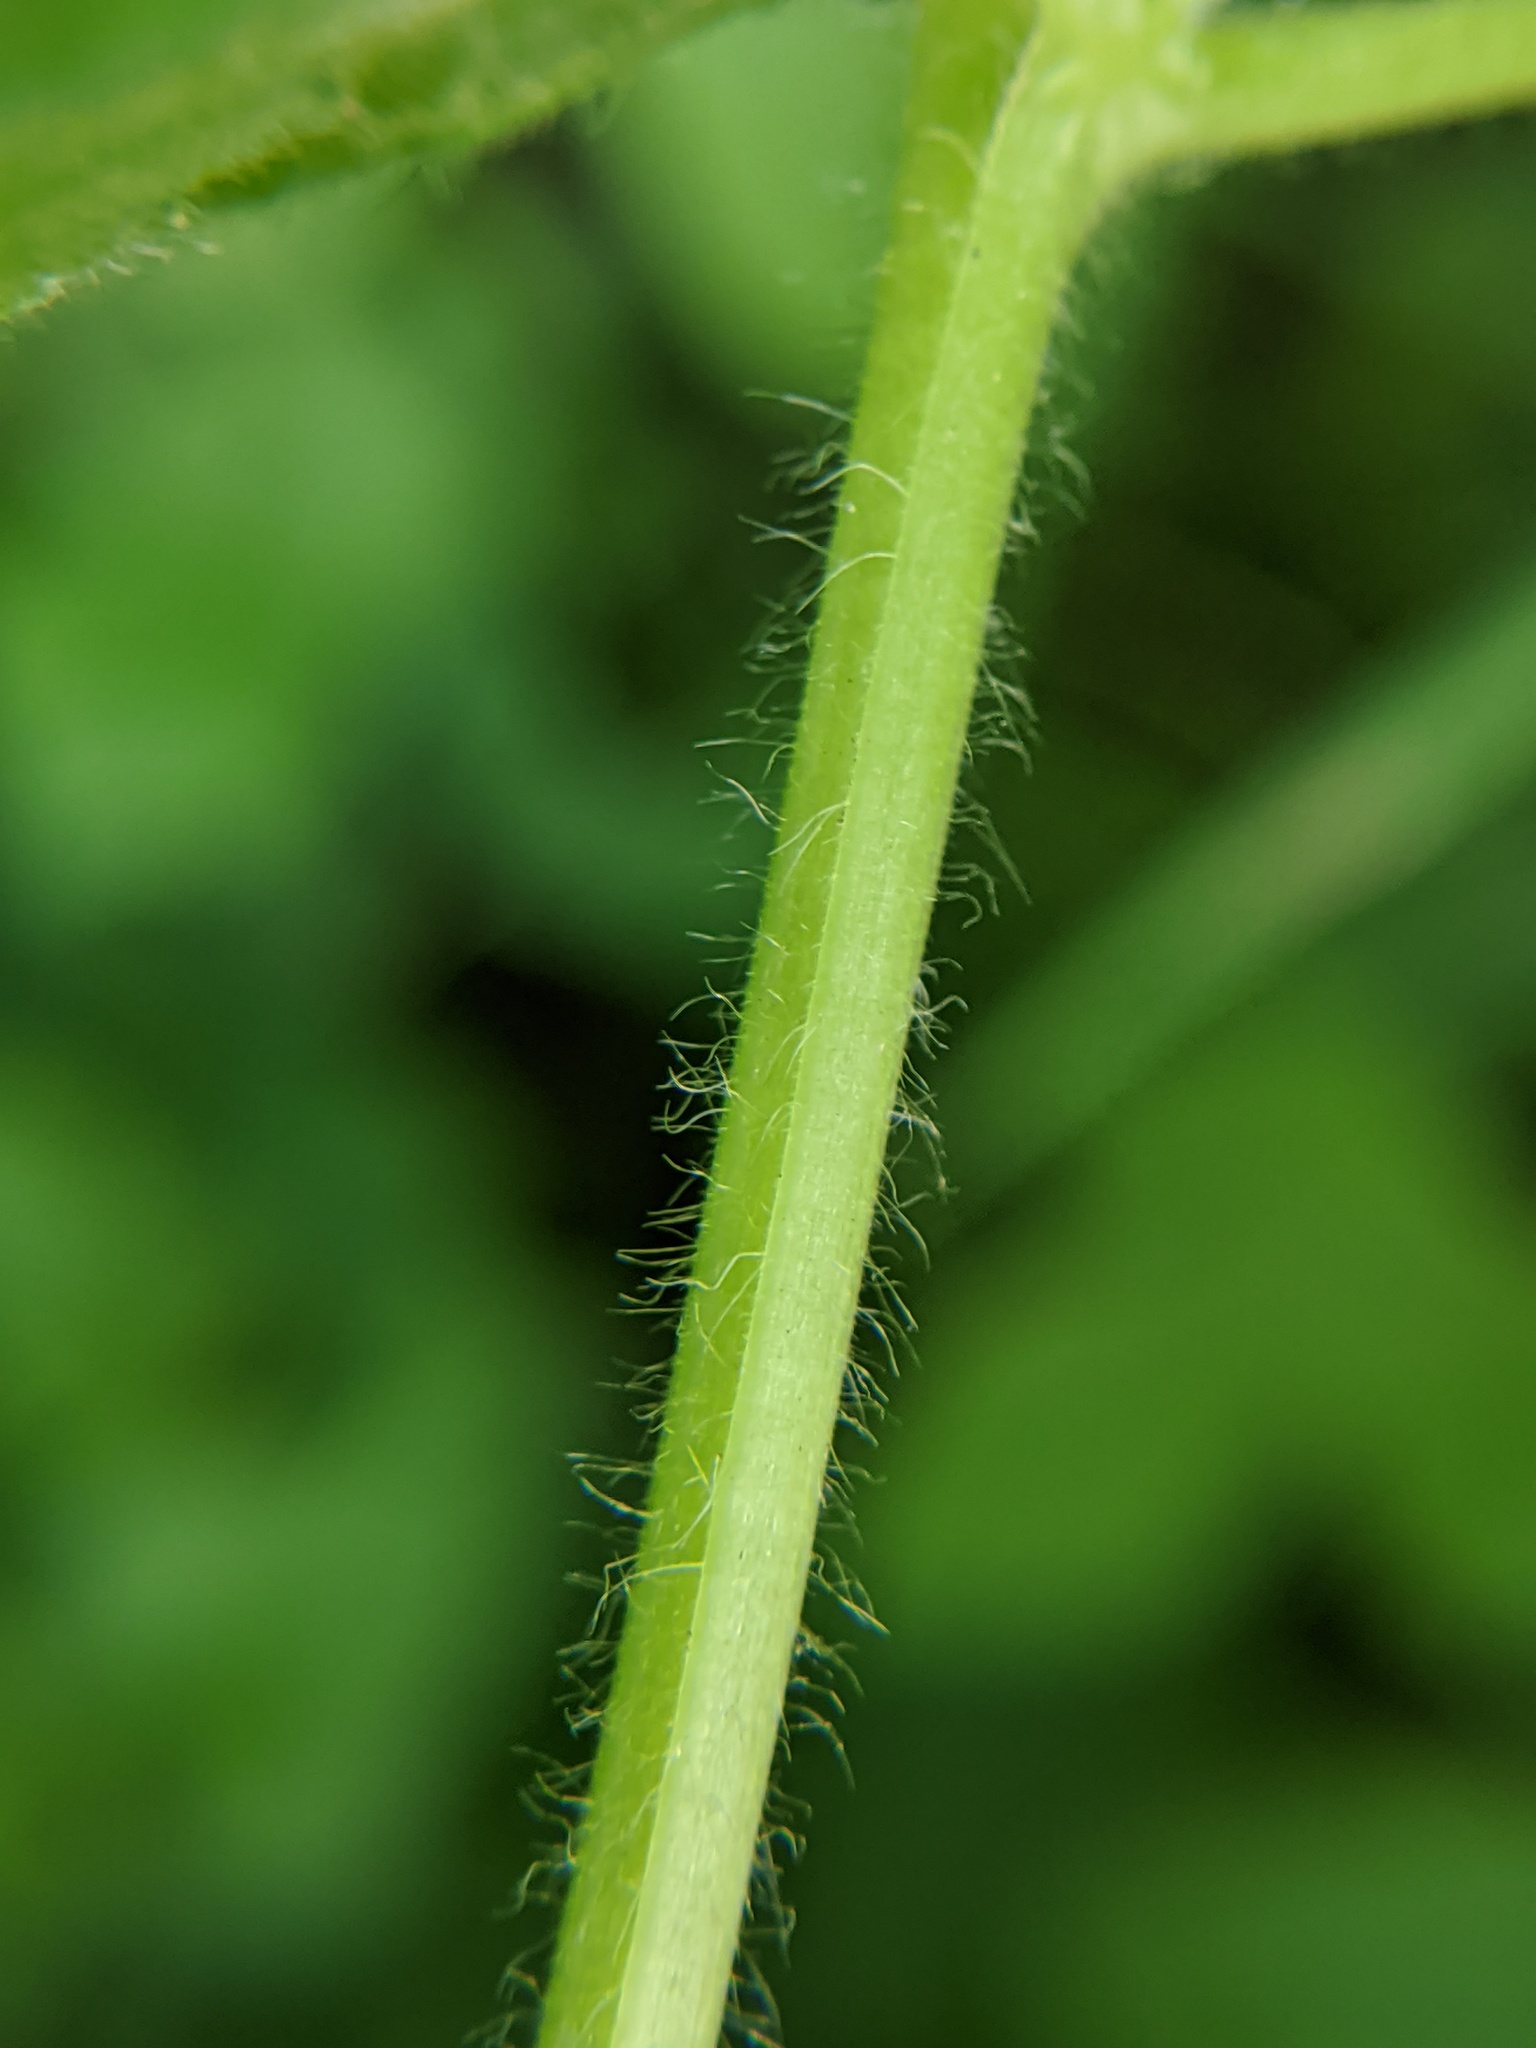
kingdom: Plantae
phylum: Tracheophyta
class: Magnoliopsida
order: Rosales
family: Rosaceae
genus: Geum
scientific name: Geum urbanum
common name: Wood avens
